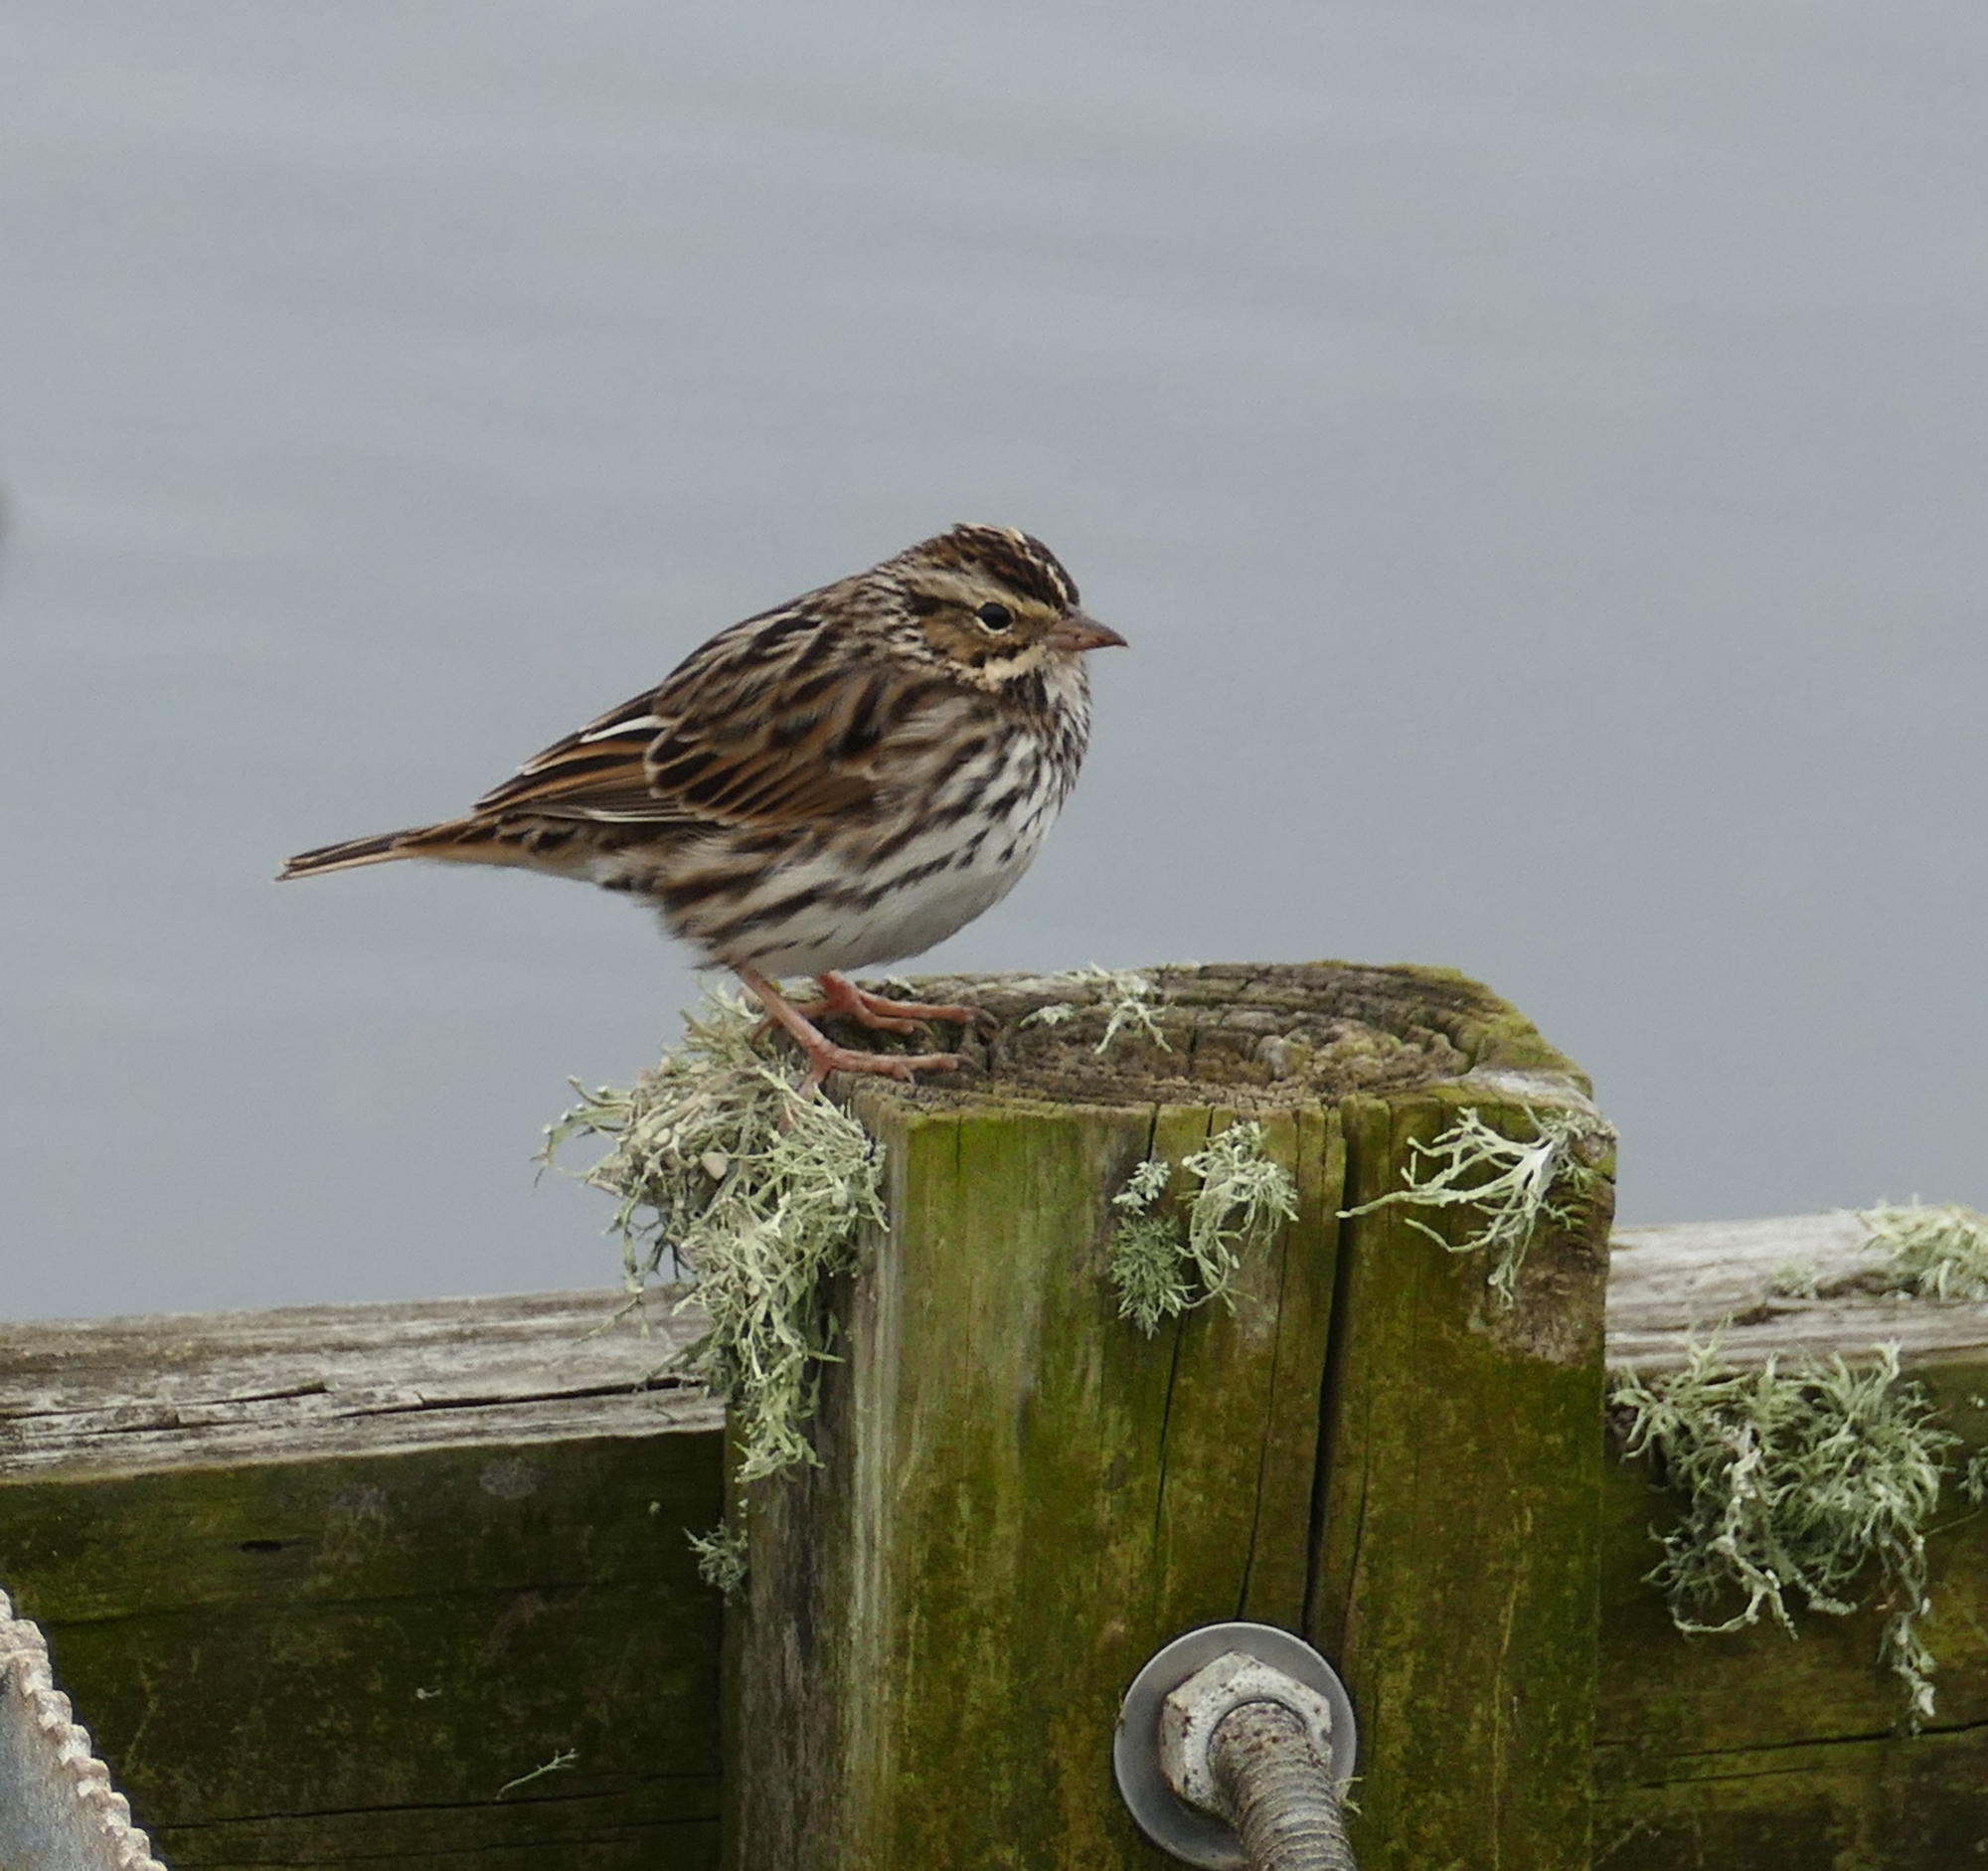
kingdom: Animalia
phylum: Chordata
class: Aves
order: Passeriformes
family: Passerellidae
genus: Passerculus
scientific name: Passerculus sandwichensis
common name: Savannah sparrow
